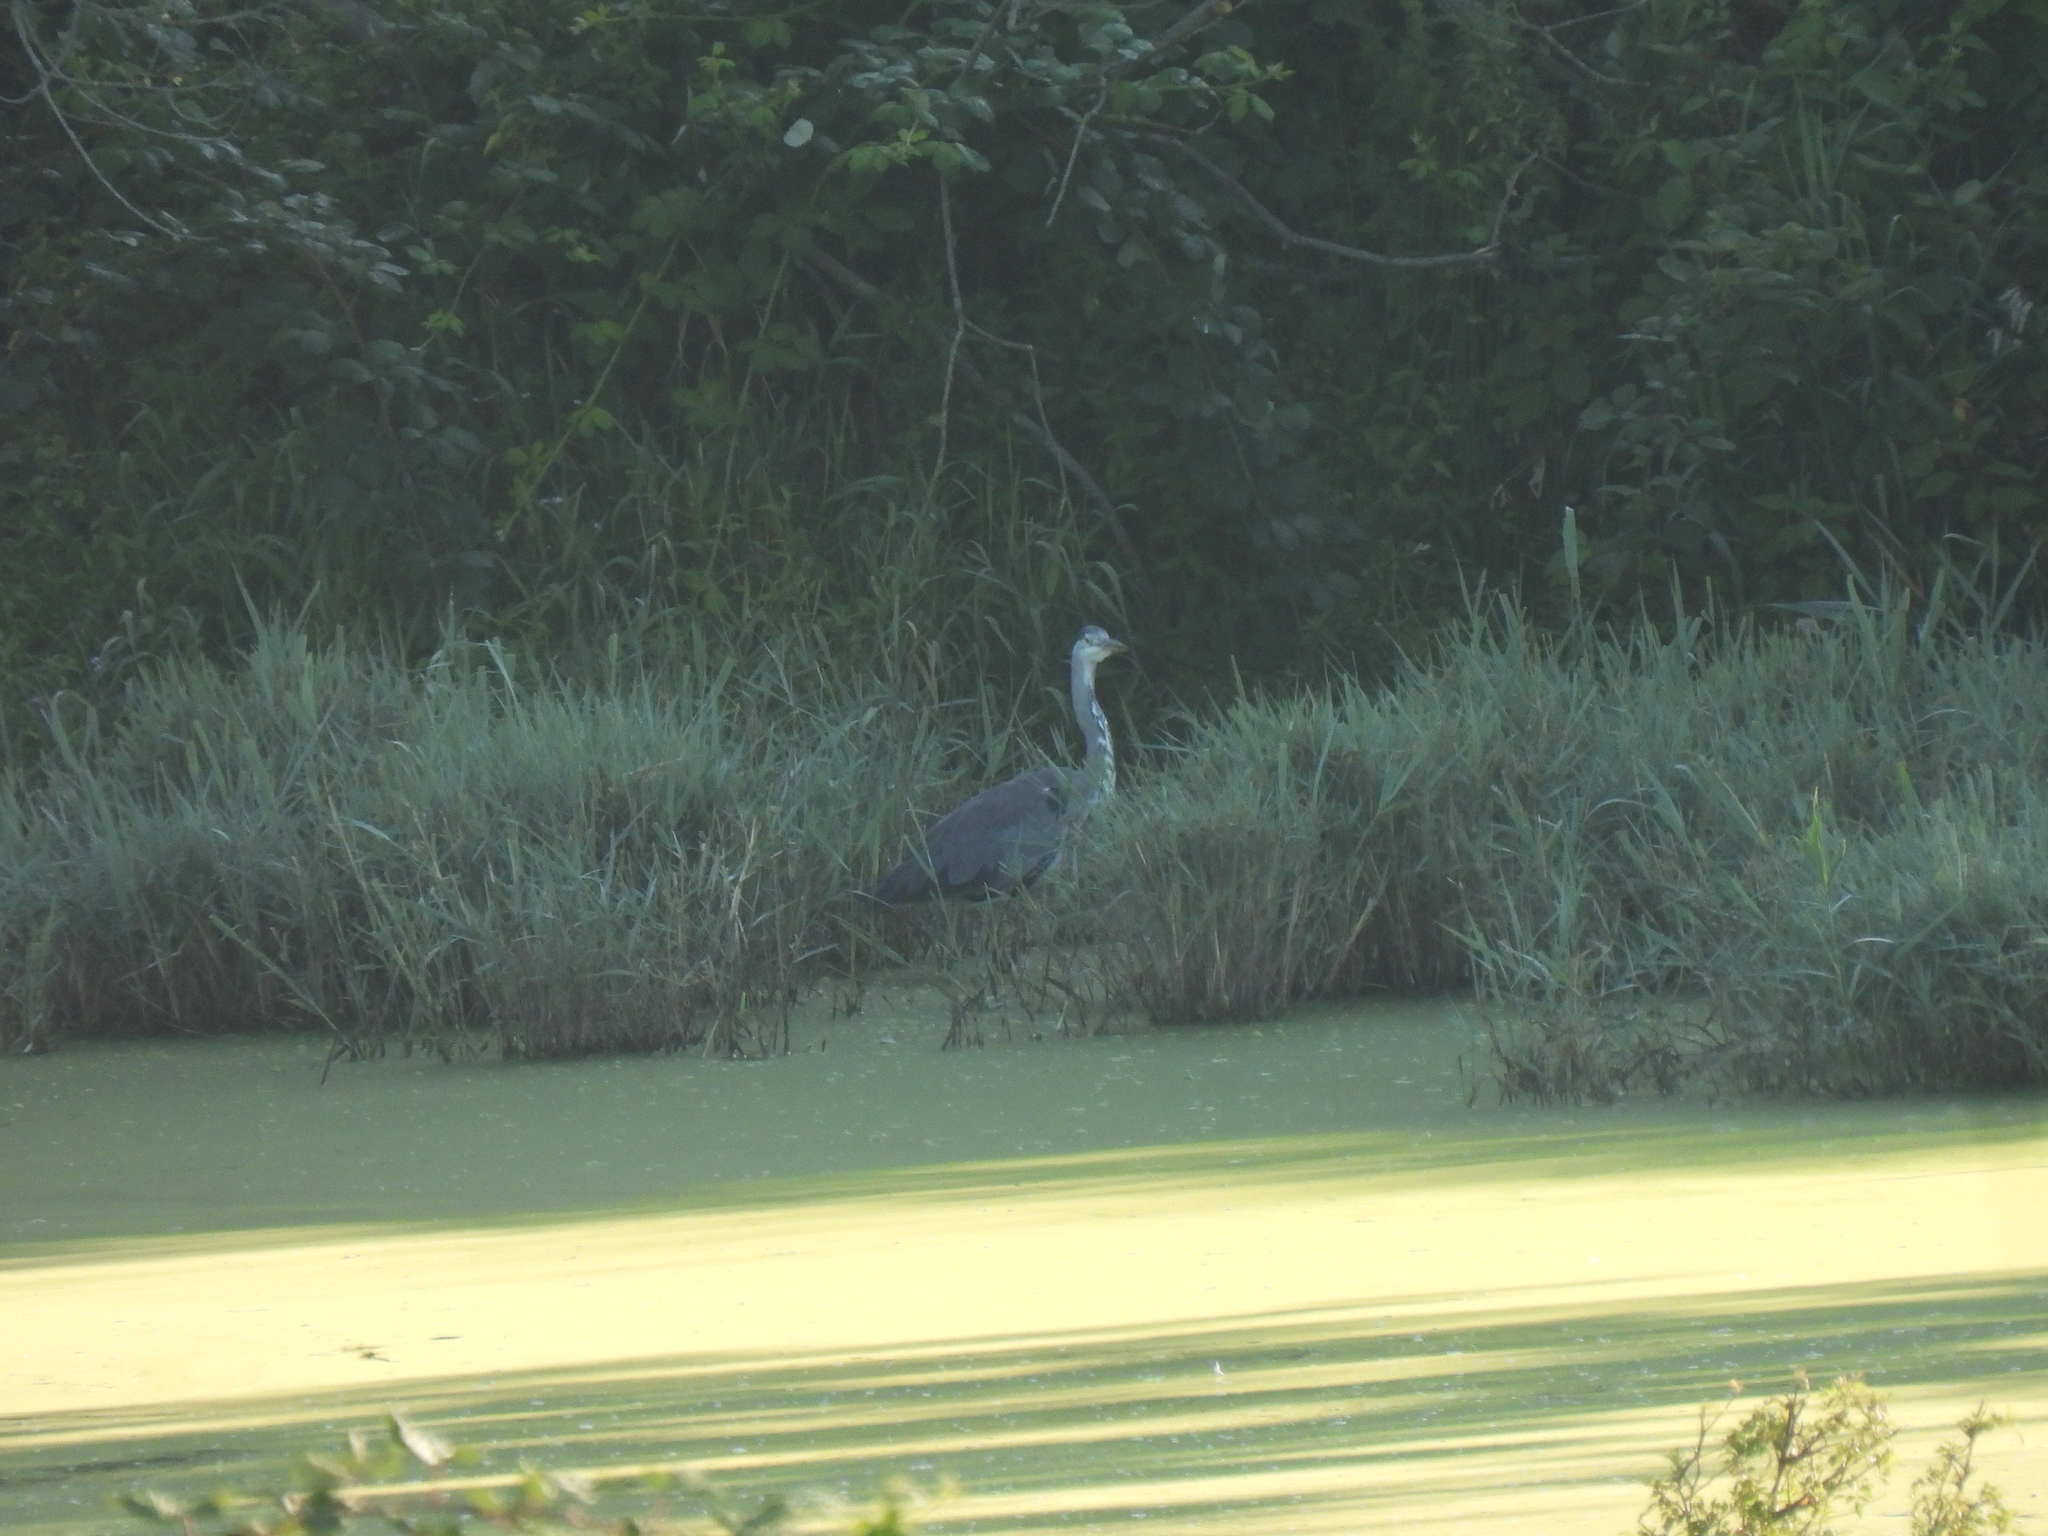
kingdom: Animalia
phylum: Chordata
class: Aves
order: Pelecaniformes
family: Ardeidae
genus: Ardea
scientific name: Ardea cinerea
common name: Grey heron
